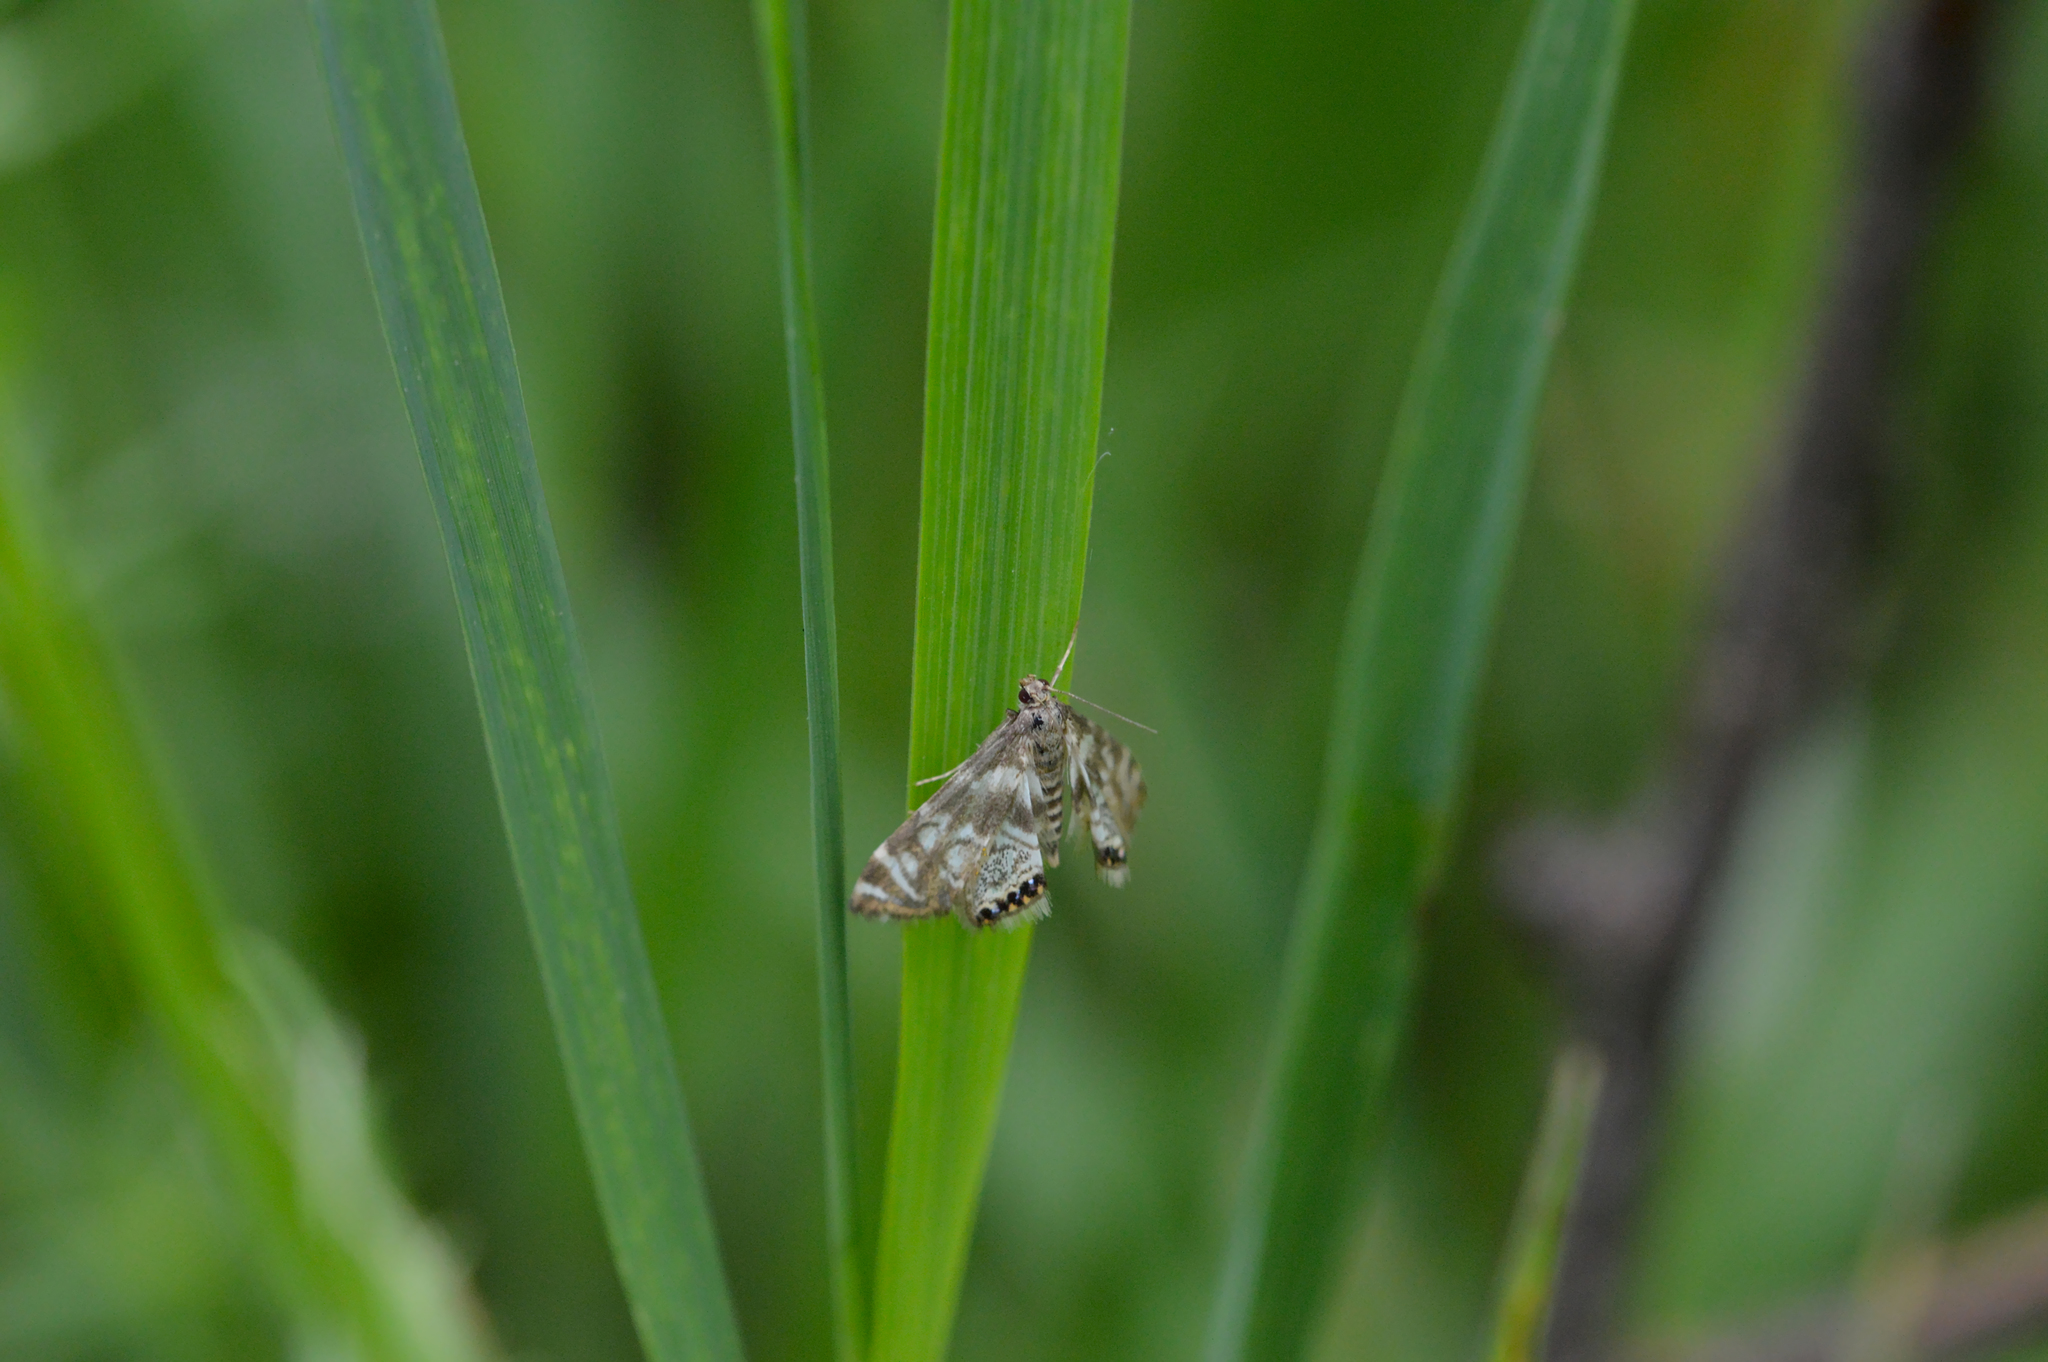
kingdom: Animalia
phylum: Arthropoda
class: Insecta
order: Lepidoptera
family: Crambidae
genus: Petrophila
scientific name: Petrophila canadensis
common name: Canadian petrophila
